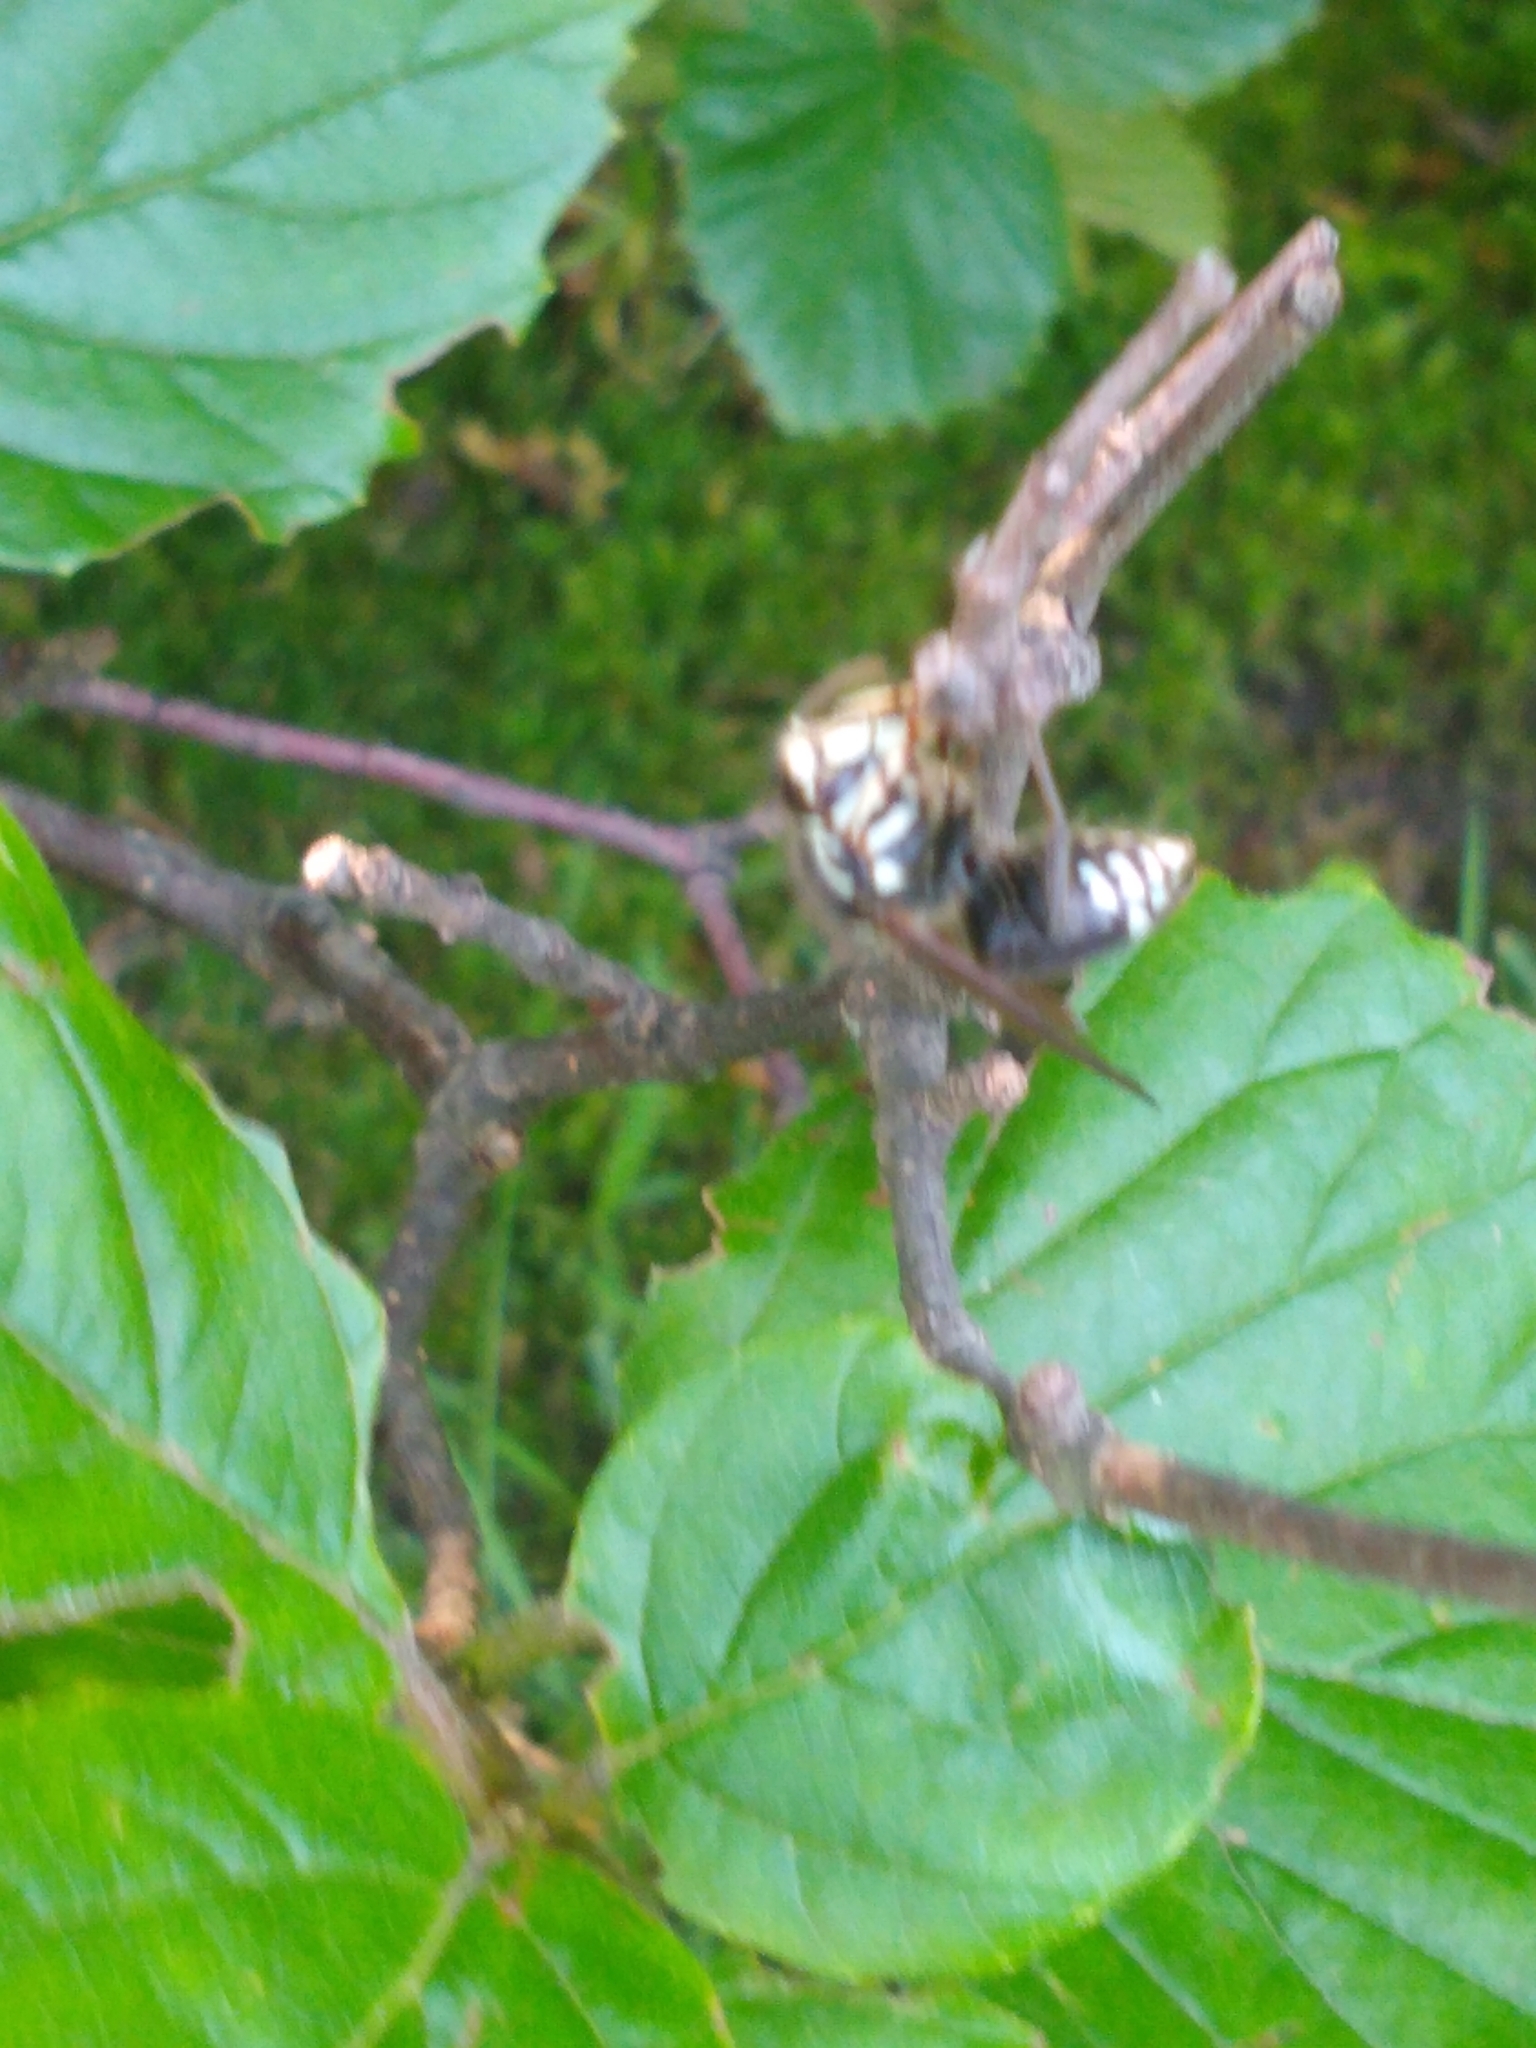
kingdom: Animalia
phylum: Arthropoda
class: Insecta
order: Hymenoptera
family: Vespidae
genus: Dolichovespula
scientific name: Dolichovespula maculata
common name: Bald-faced hornet
